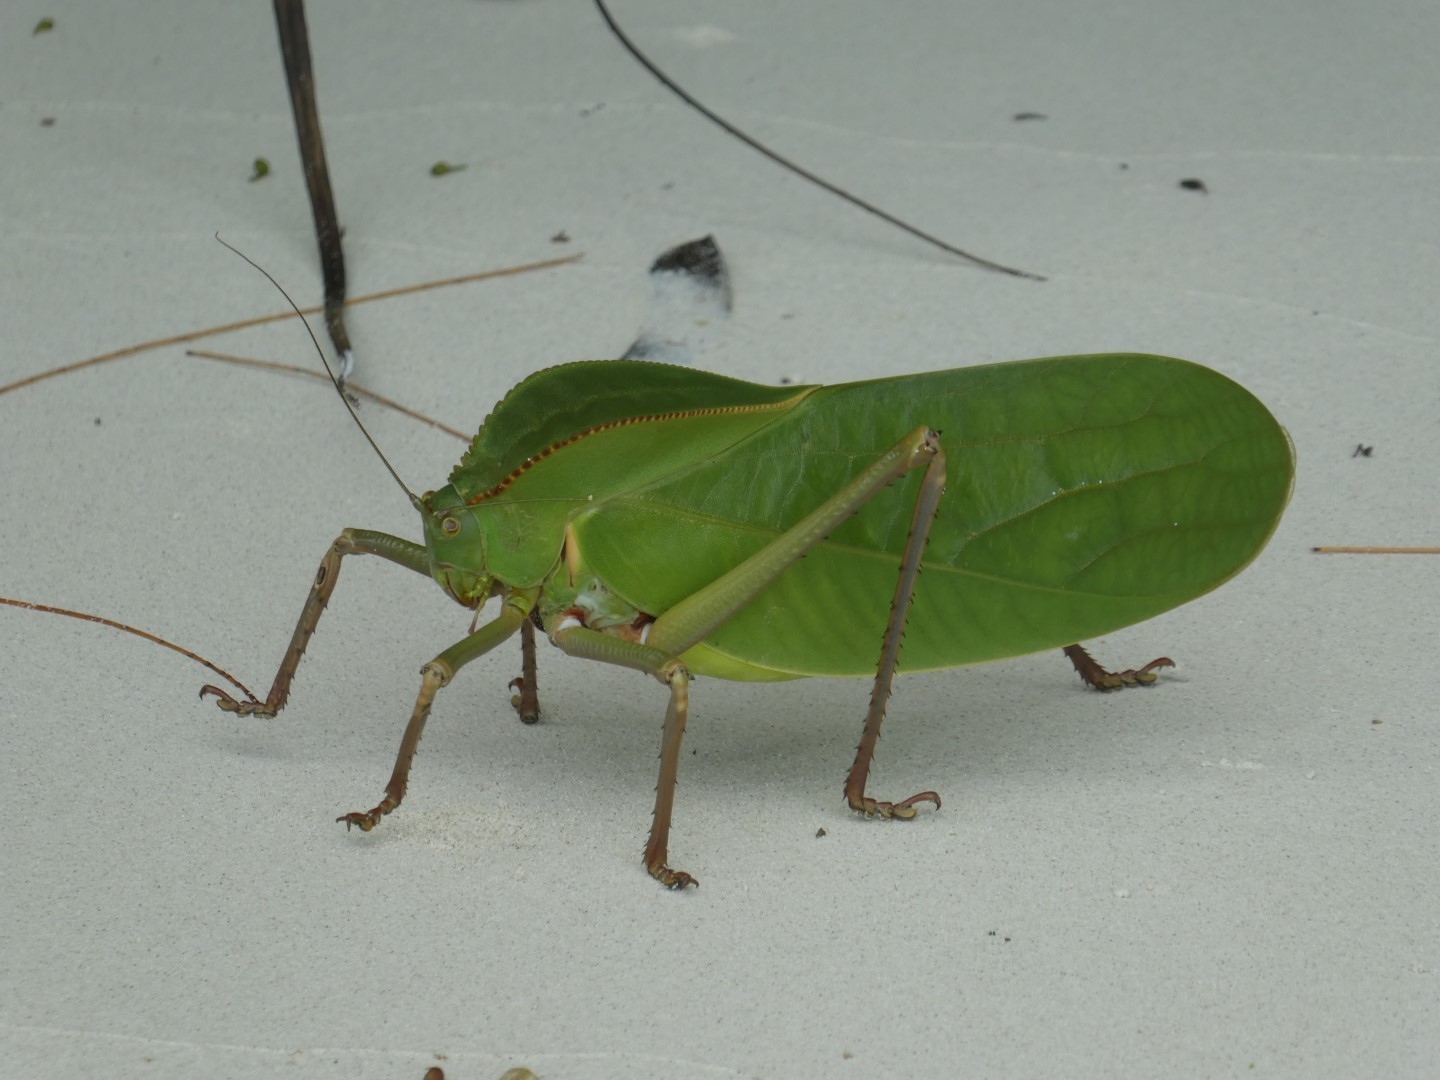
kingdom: Animalia
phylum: Arthropoda
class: Insecta
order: Orthoptera
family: Tettigoniidae
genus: Siliquofera
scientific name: Siliquofera grandis
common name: Giant katydid
